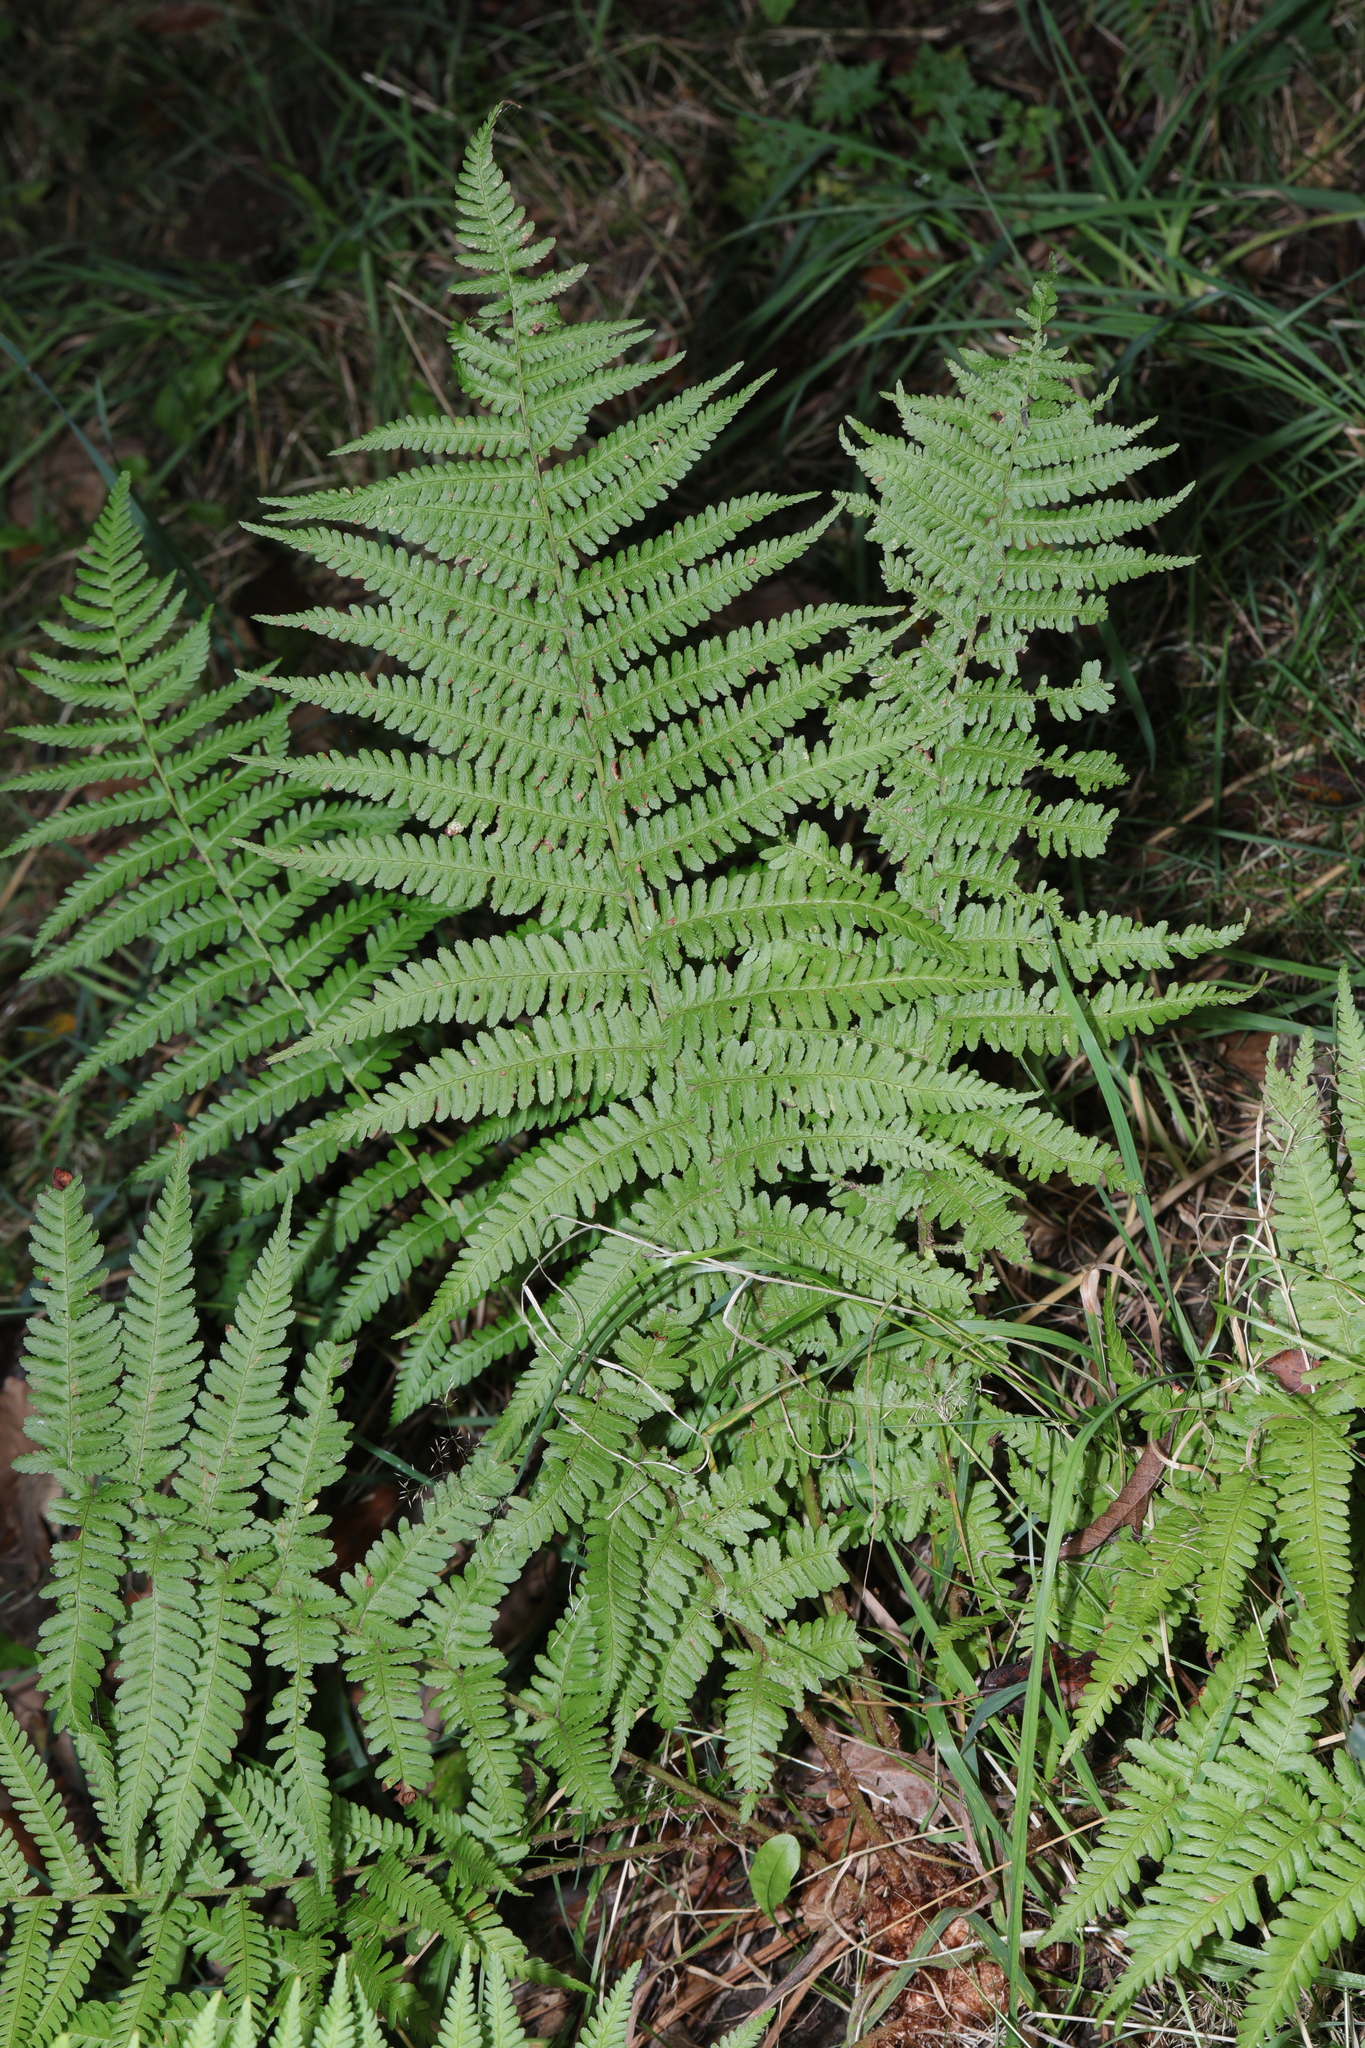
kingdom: Plantae
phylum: Tracheophyta
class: Polypodiopsida
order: Polypodiales
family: Dryopteridaceae
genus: Dryopteris
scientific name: Dryopteris filix-mas
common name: Male fern
